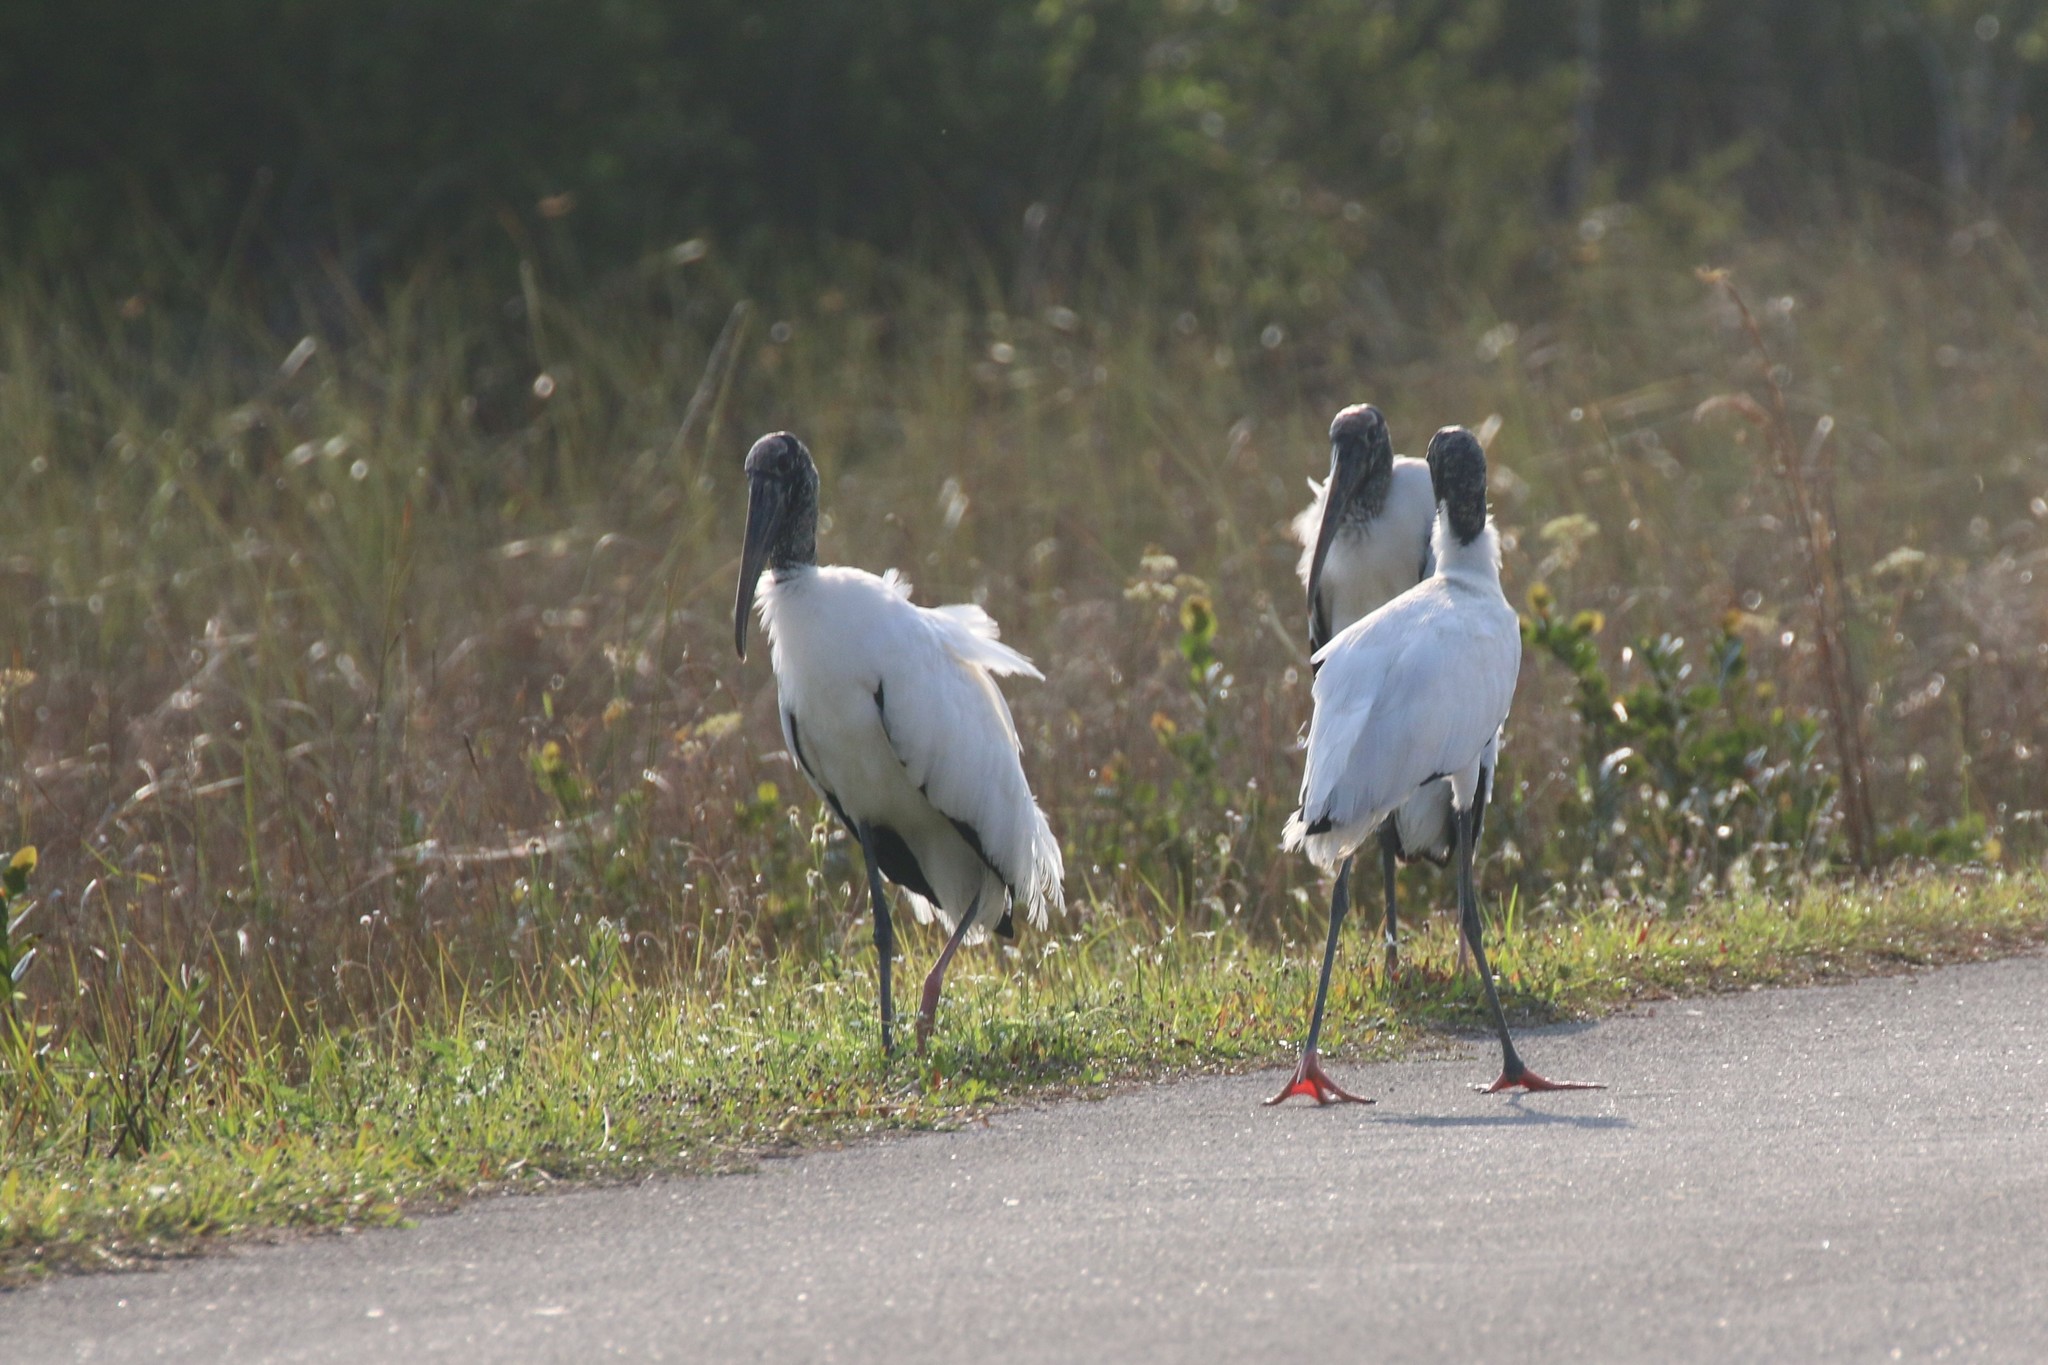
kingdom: Animalia
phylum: Chordata
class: Aves
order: Ciconiiformes
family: Ciconiidae
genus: Mycteria
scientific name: Mycteria americana
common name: Wood stork
